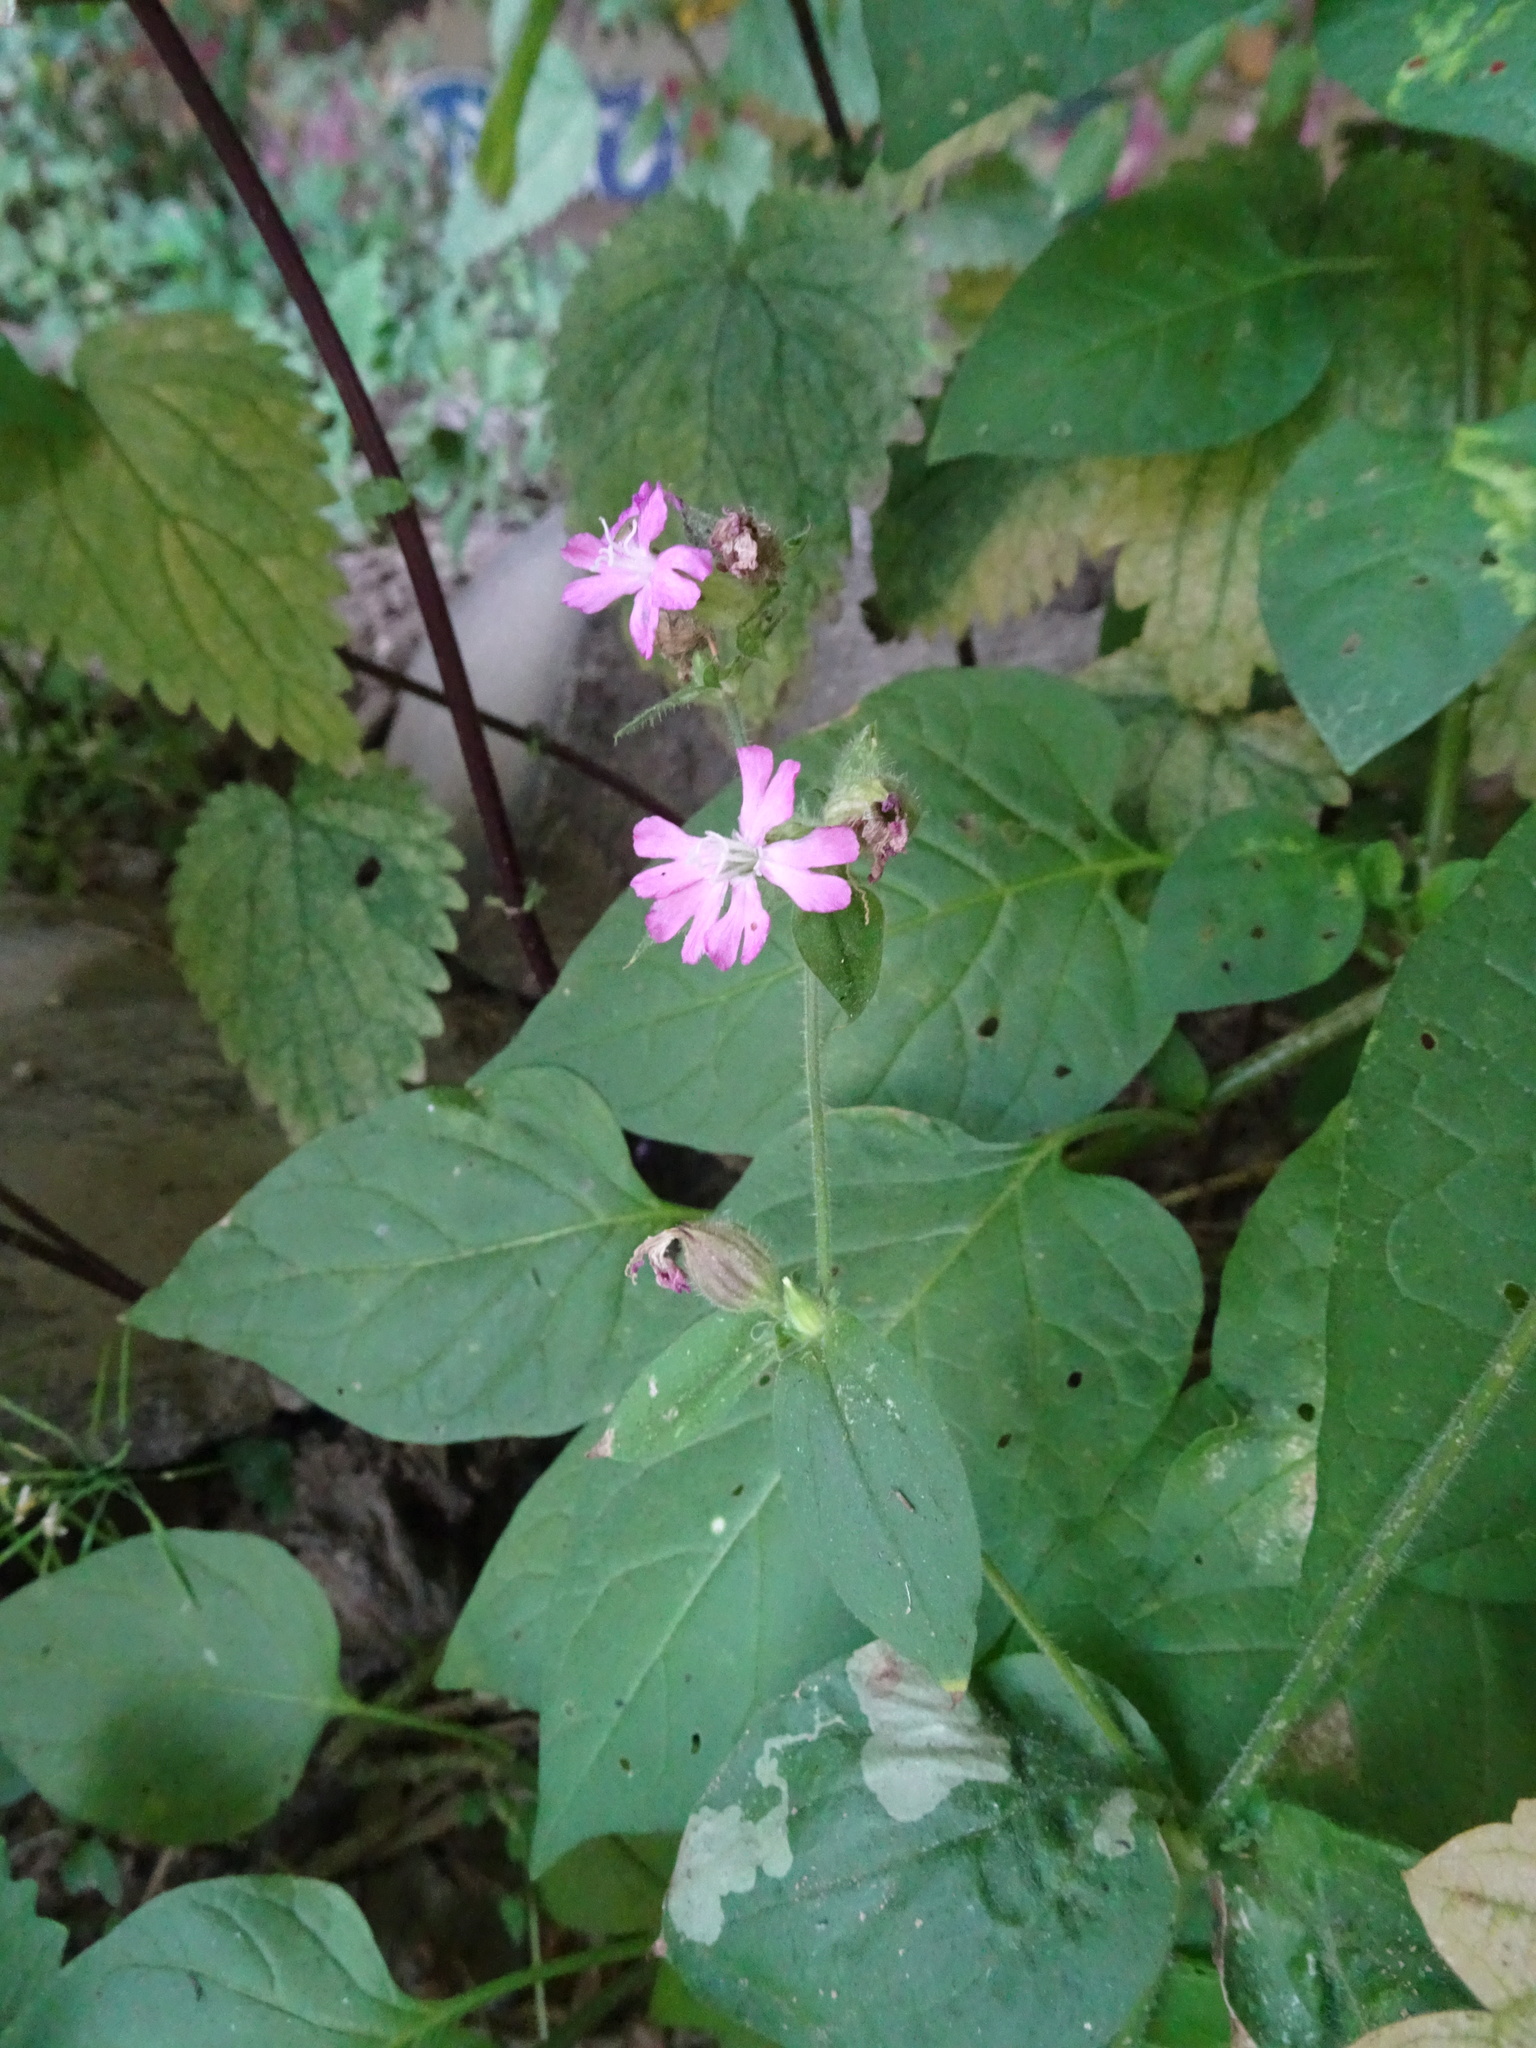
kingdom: Plantae
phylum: Tracheophyta
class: Magnoliopsida
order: Caryophyllales
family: Caryophyllaceae
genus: Silene
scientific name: Silene dioica
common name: Red campion
